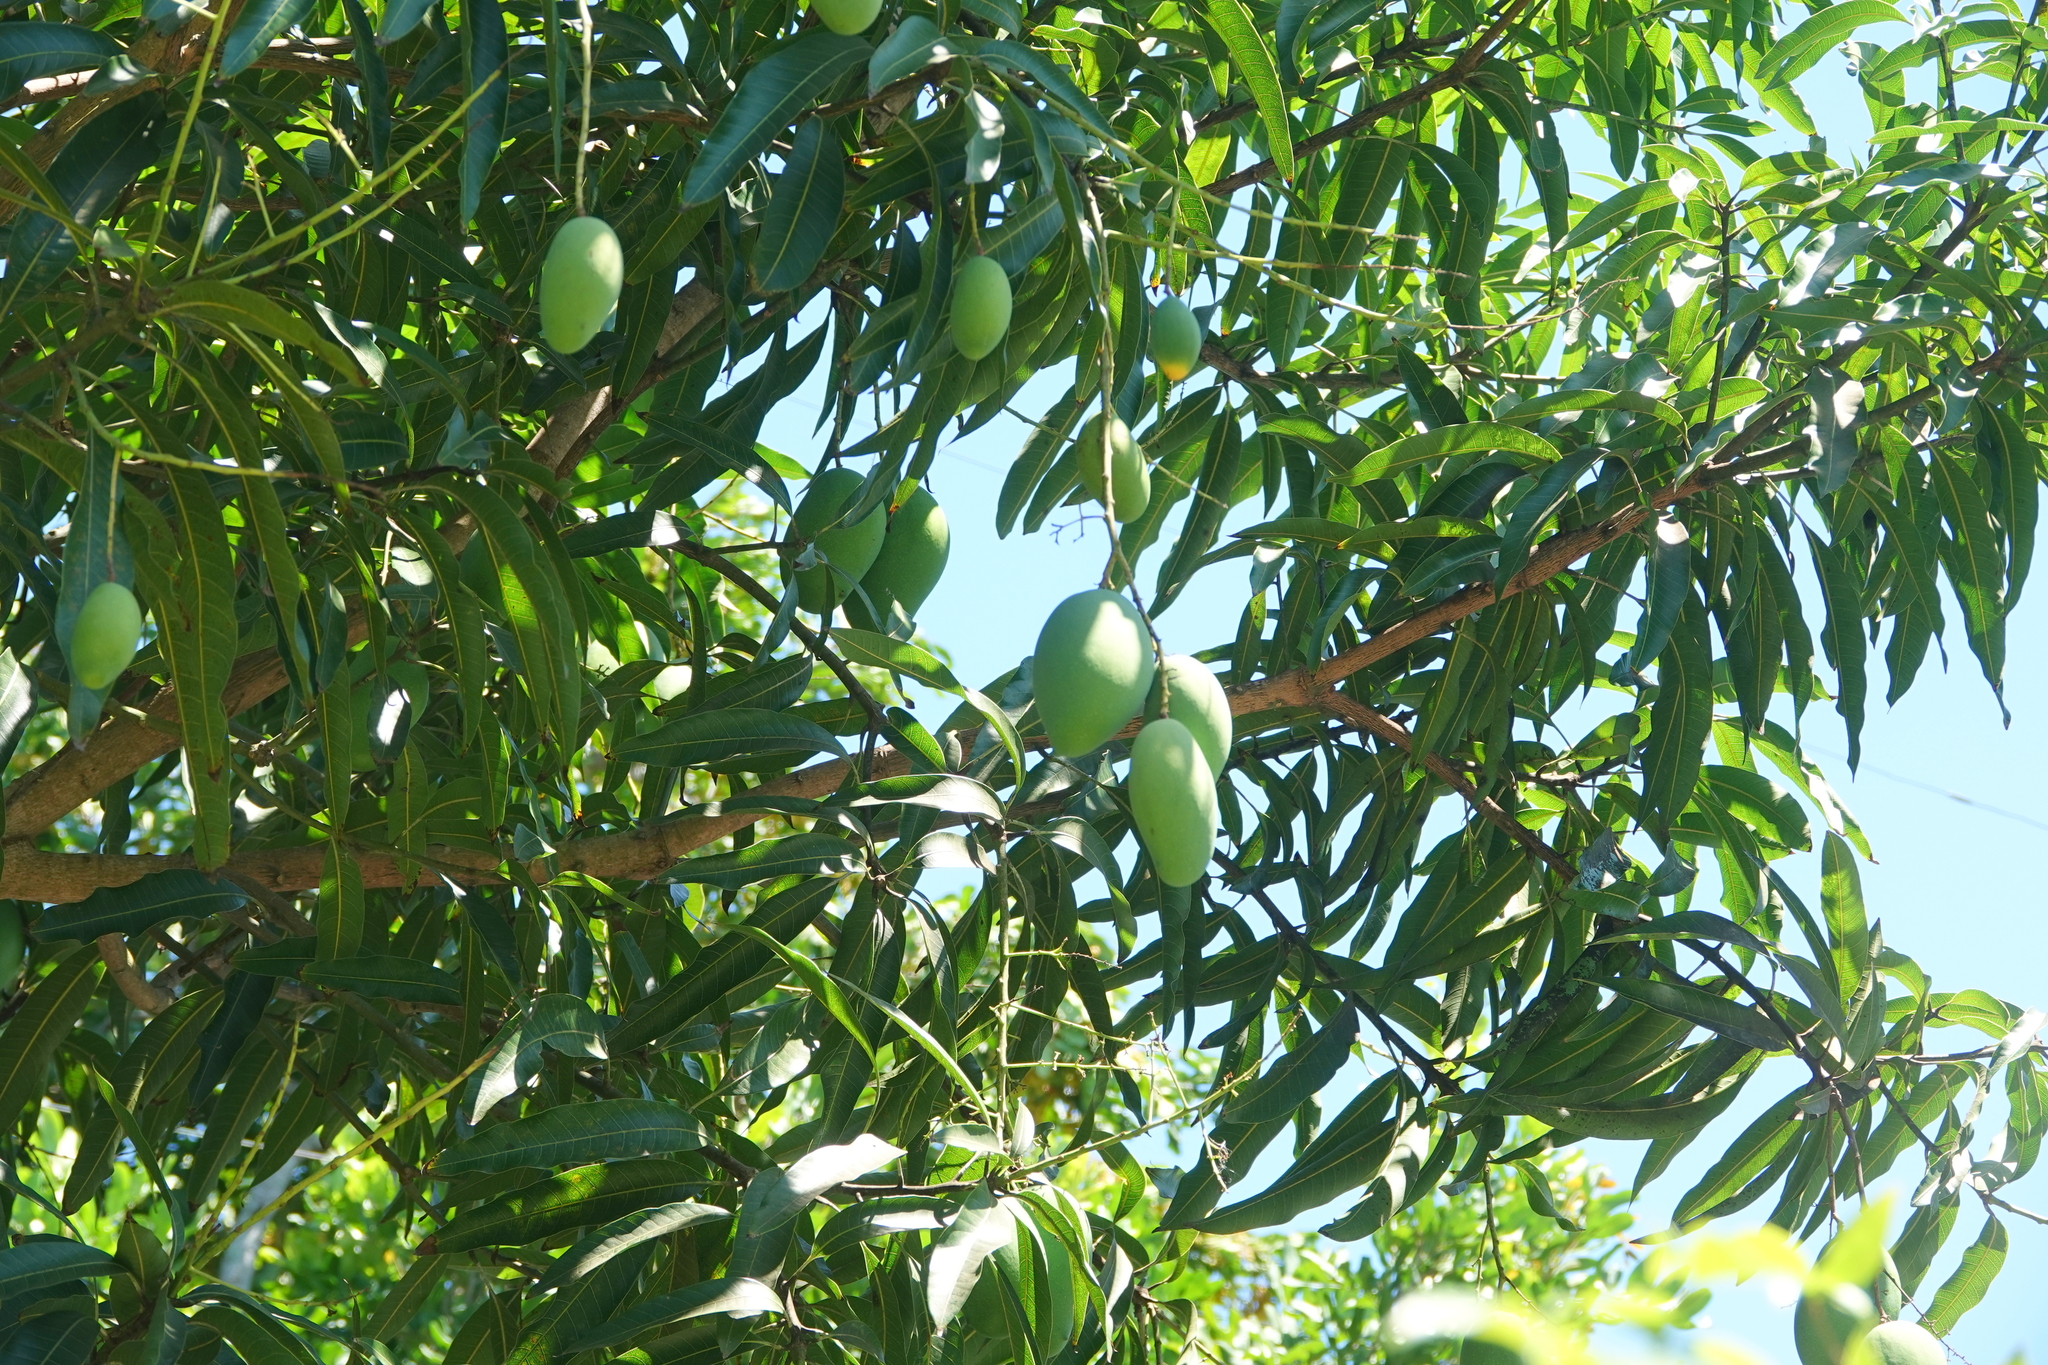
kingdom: Plantae
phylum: Tracheophyta
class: Magnoliopsida
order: Sapindales
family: Anacardiaceae
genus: Mangifera
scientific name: Mangifera indica
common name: Mango
